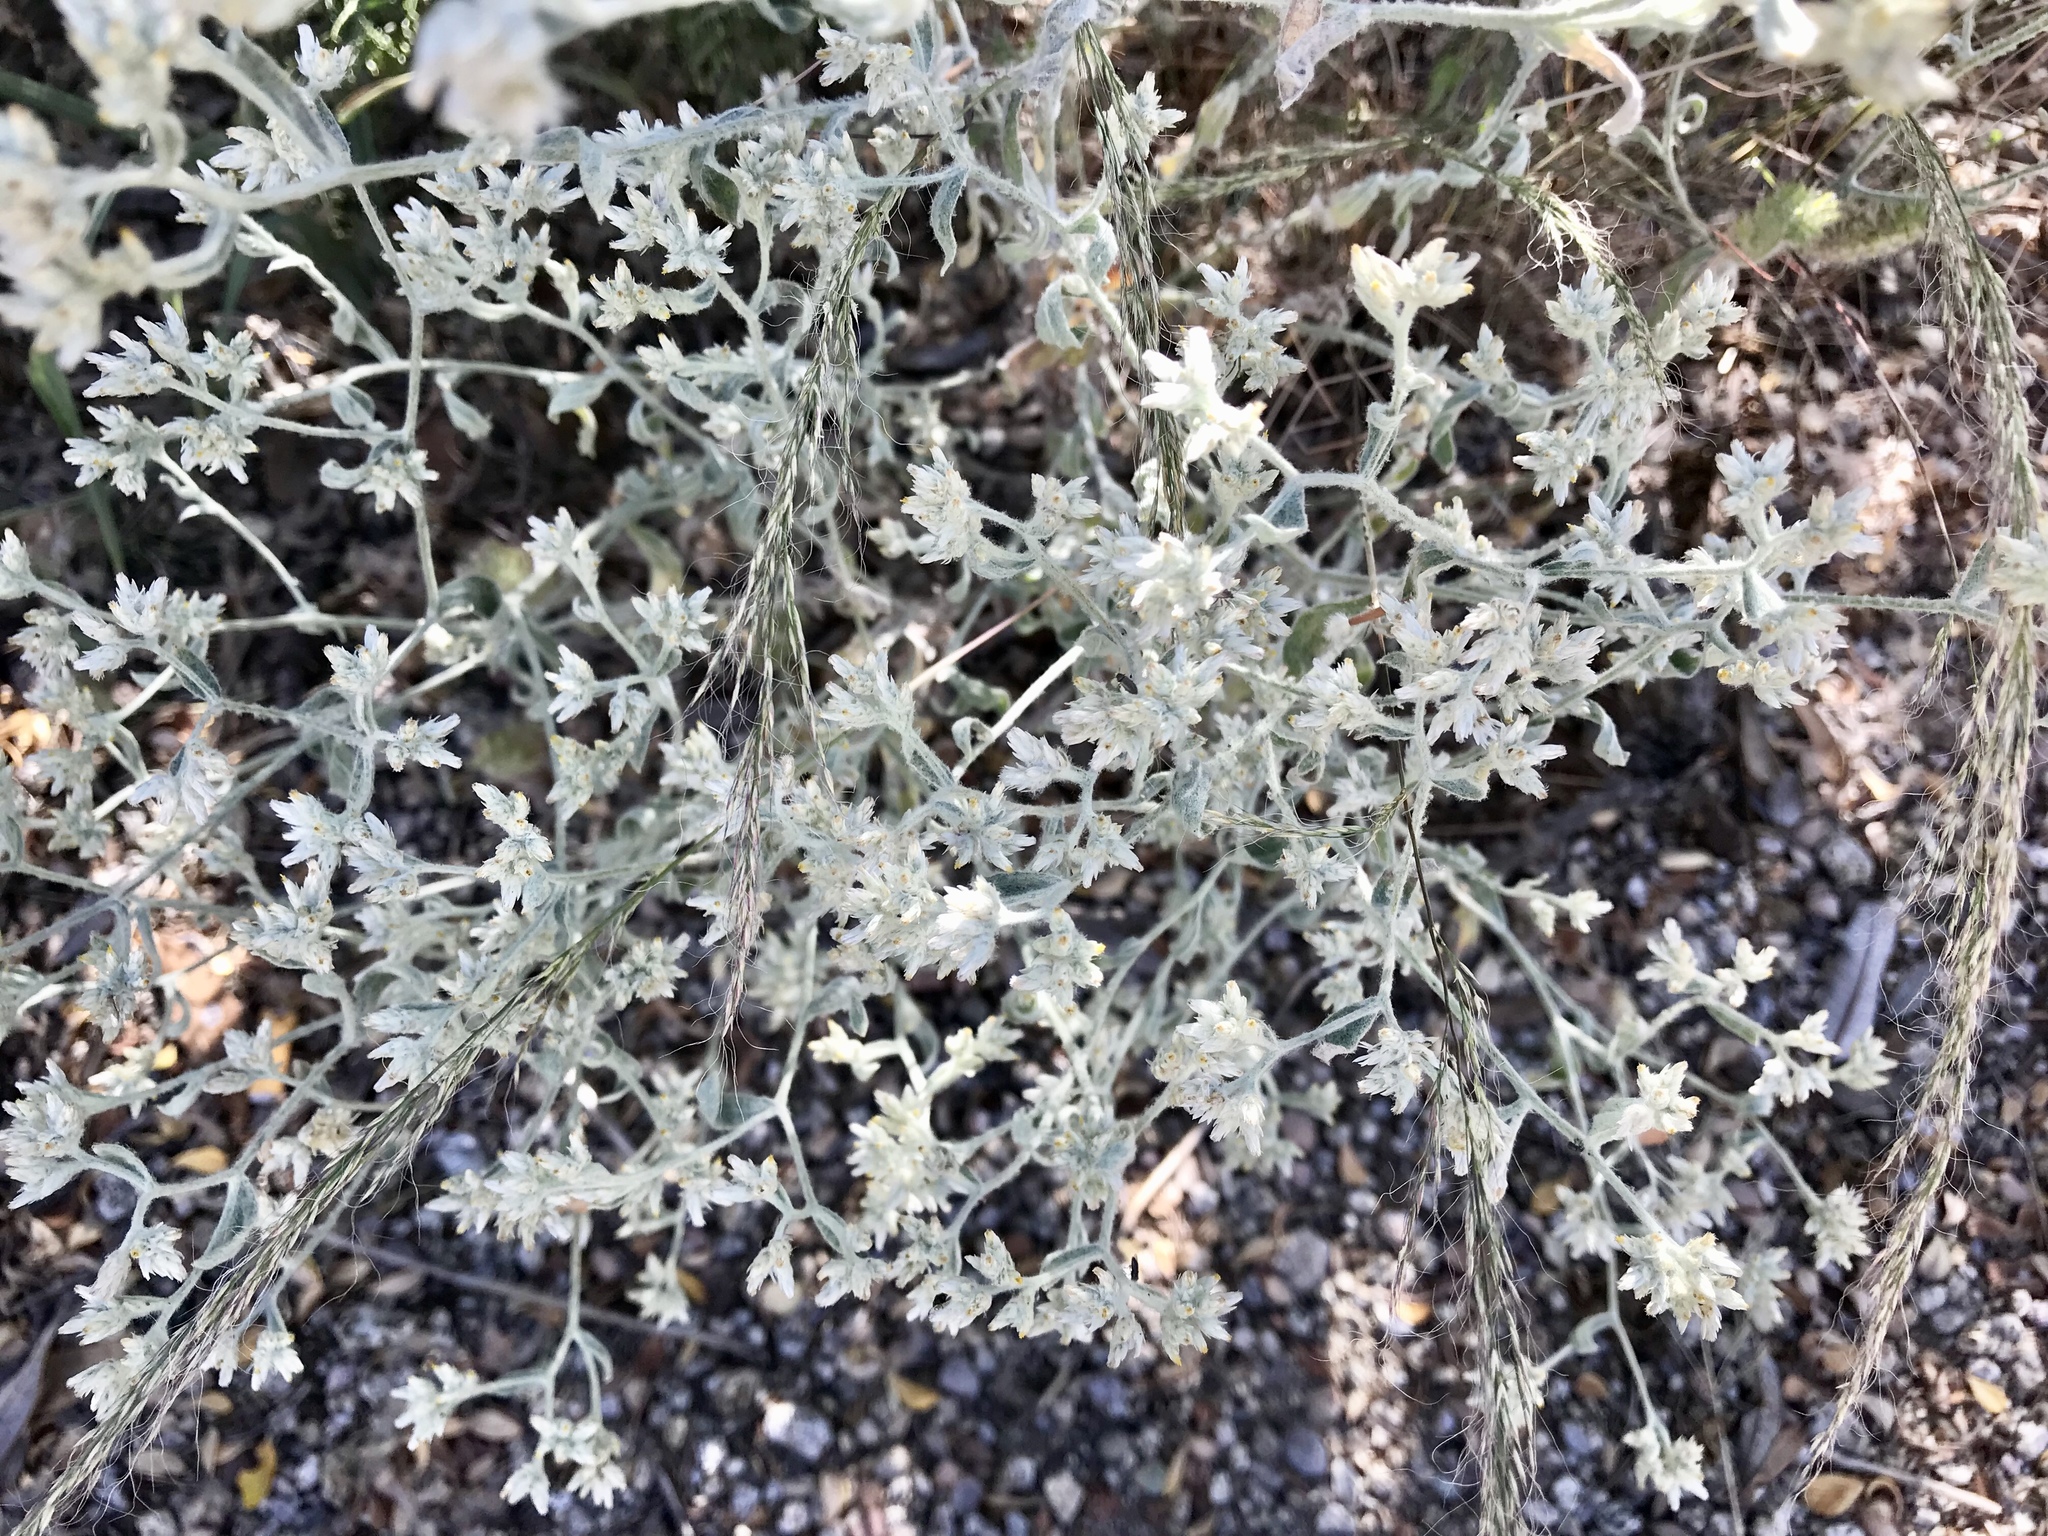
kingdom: Plantae
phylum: Tracheophyta
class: Magnoliopsida
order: Asterales
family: Asteraceae
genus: Pseudognaphalium
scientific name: Pseudognaphalium canescens
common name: Wright's rabbit-tobacco
